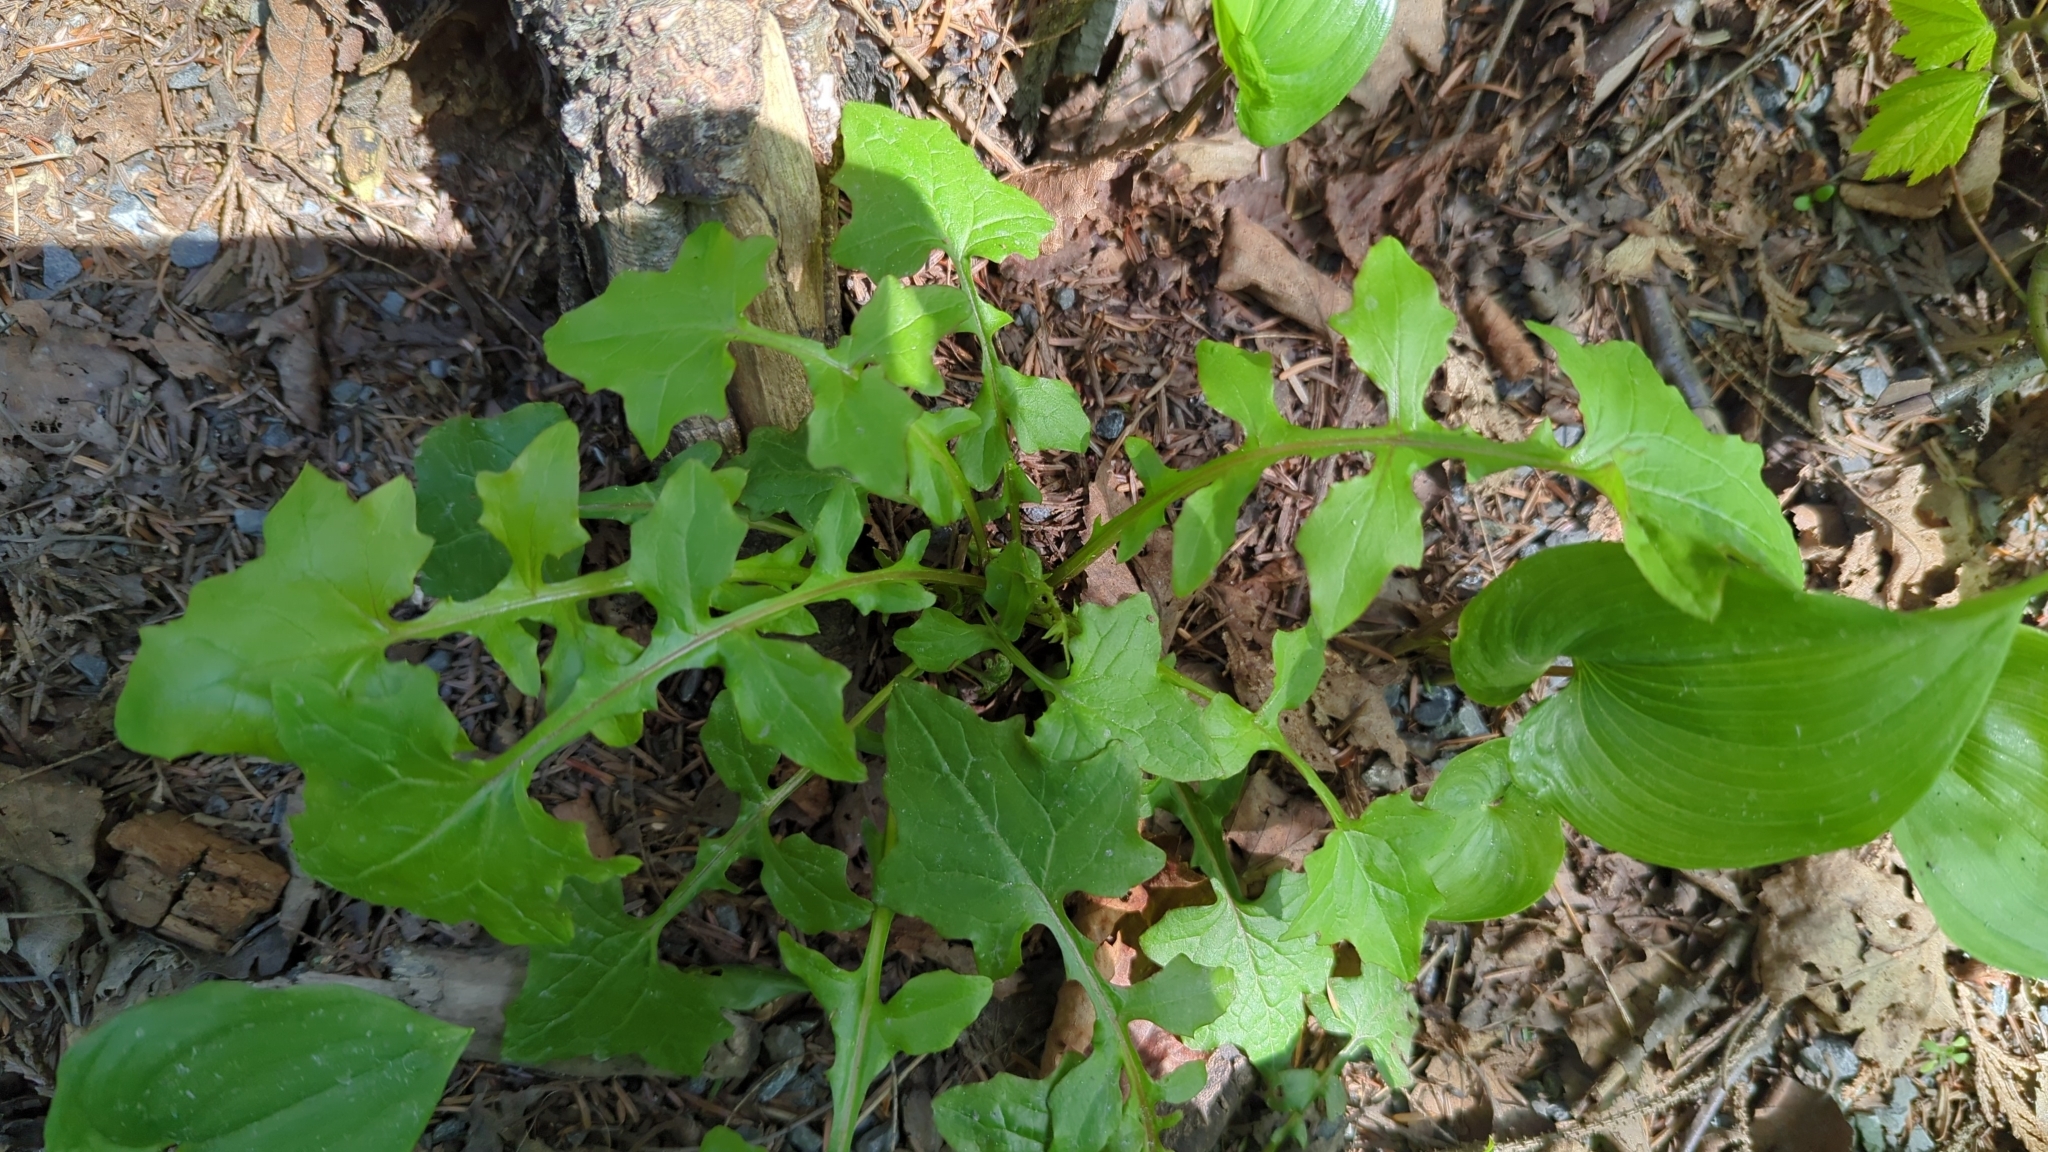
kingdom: Plantae
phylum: Tracheophyta
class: Magnoliopsida
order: Asterales
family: Asteraceae
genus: Mycelis
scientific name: Mycelis muralis
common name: Wall lettuce
